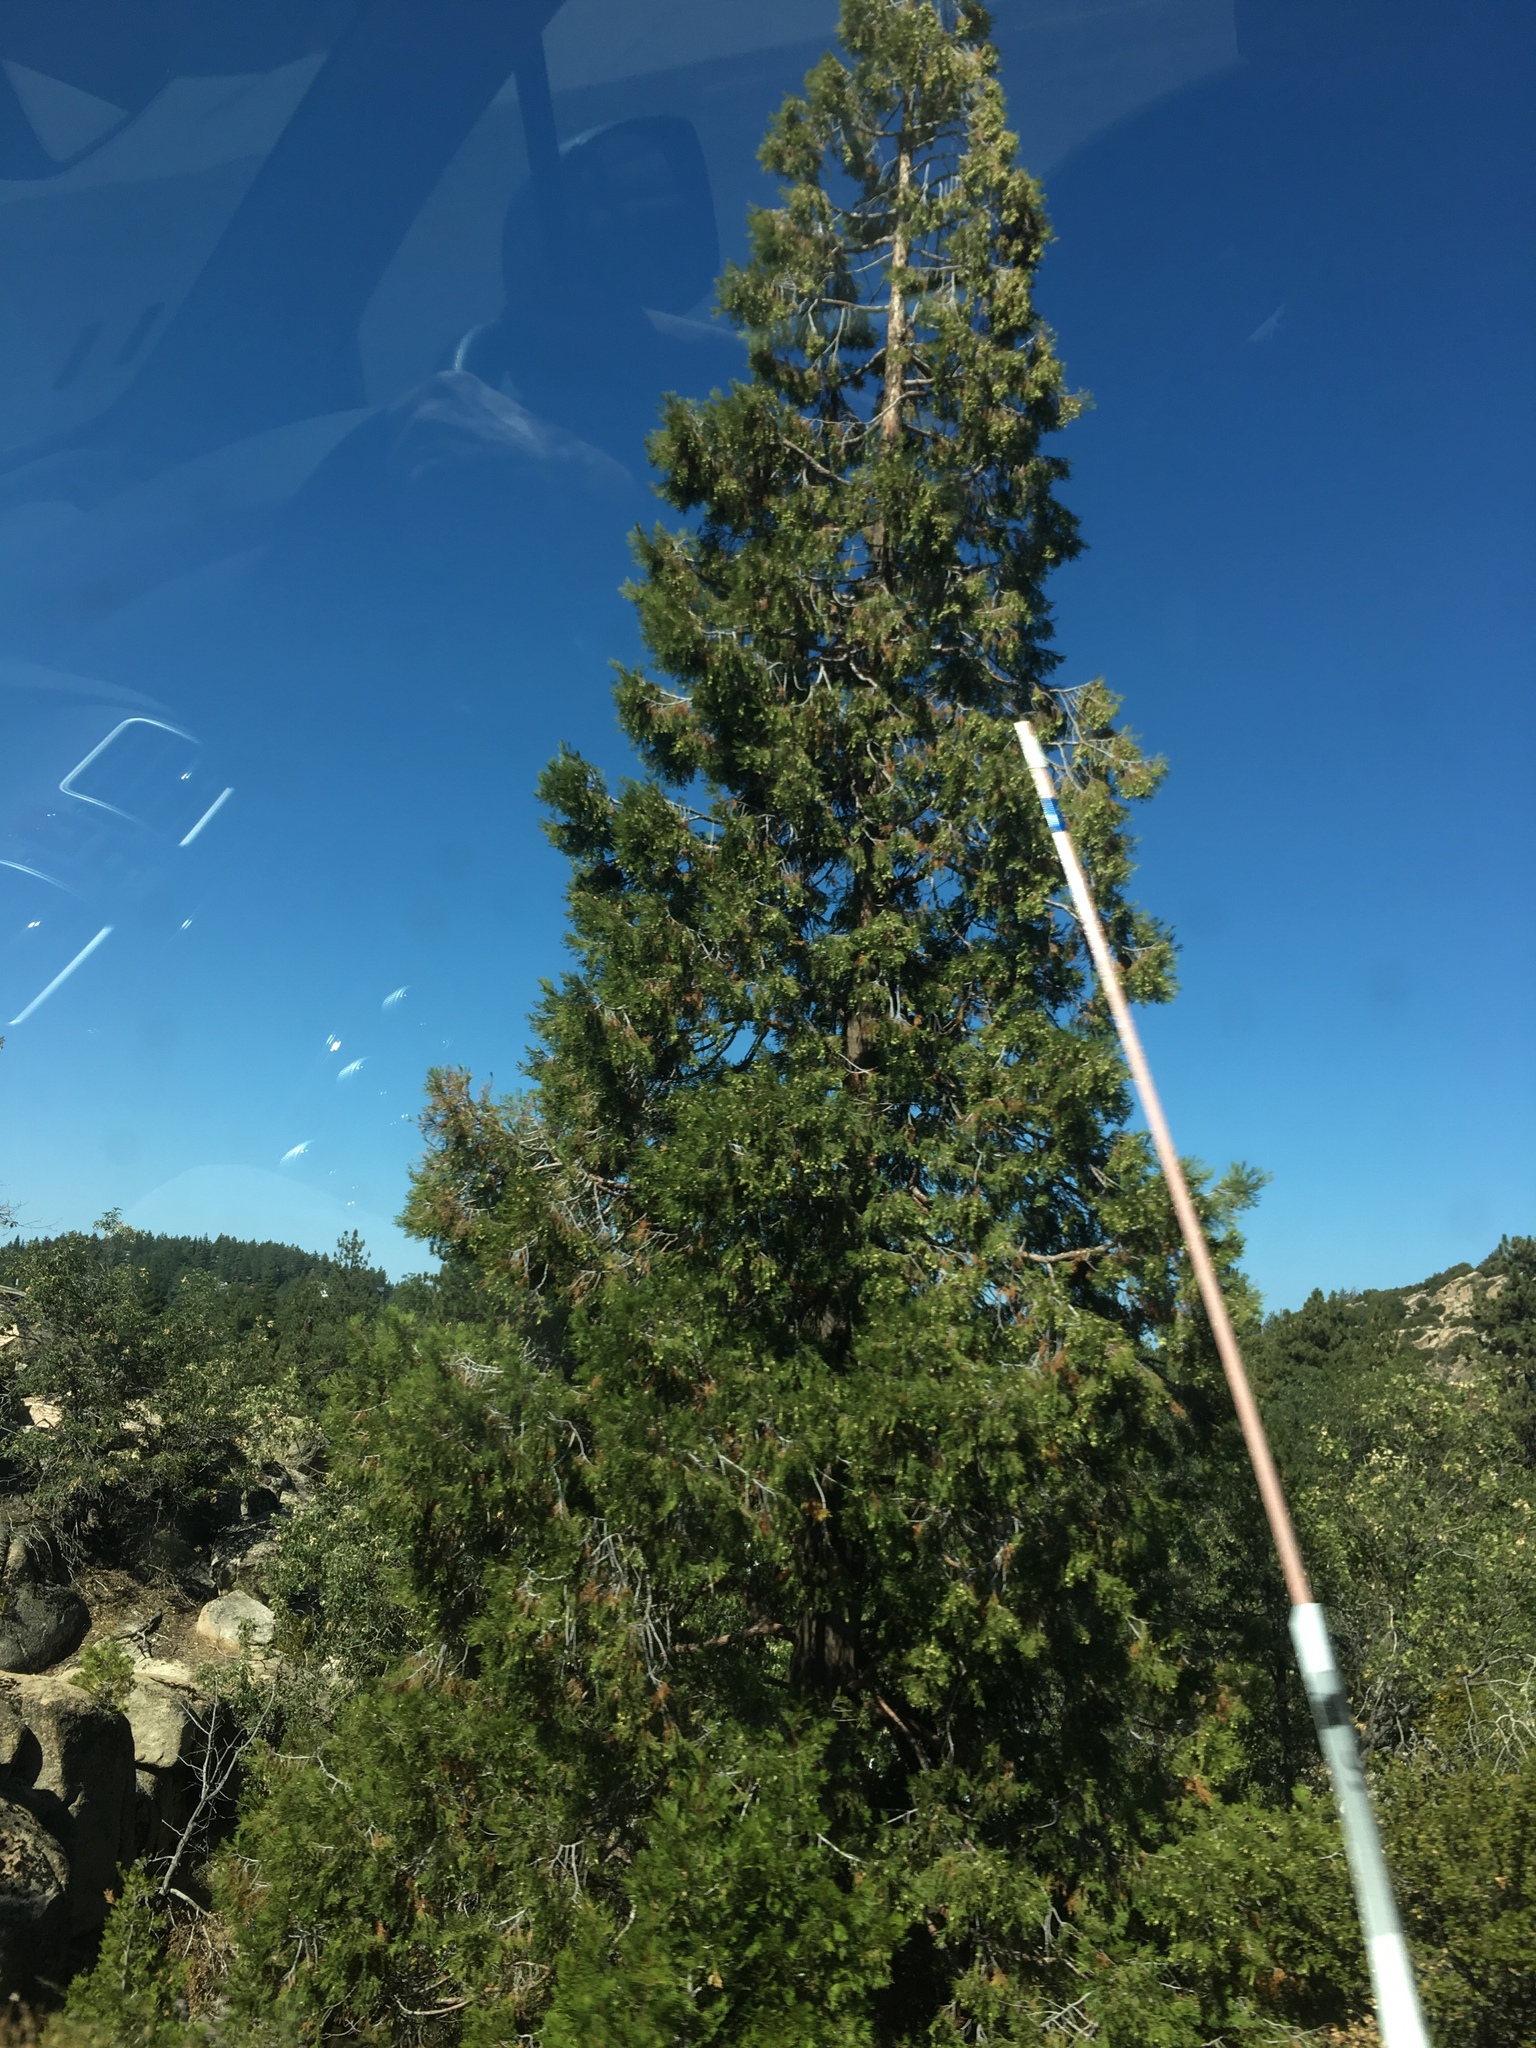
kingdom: Plantae
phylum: Tracheophyta
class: Pinopsida
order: Pinales
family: Cupressaceae
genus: Calocedrus
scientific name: Calocedrus decurrens
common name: Californian incense-cedar
